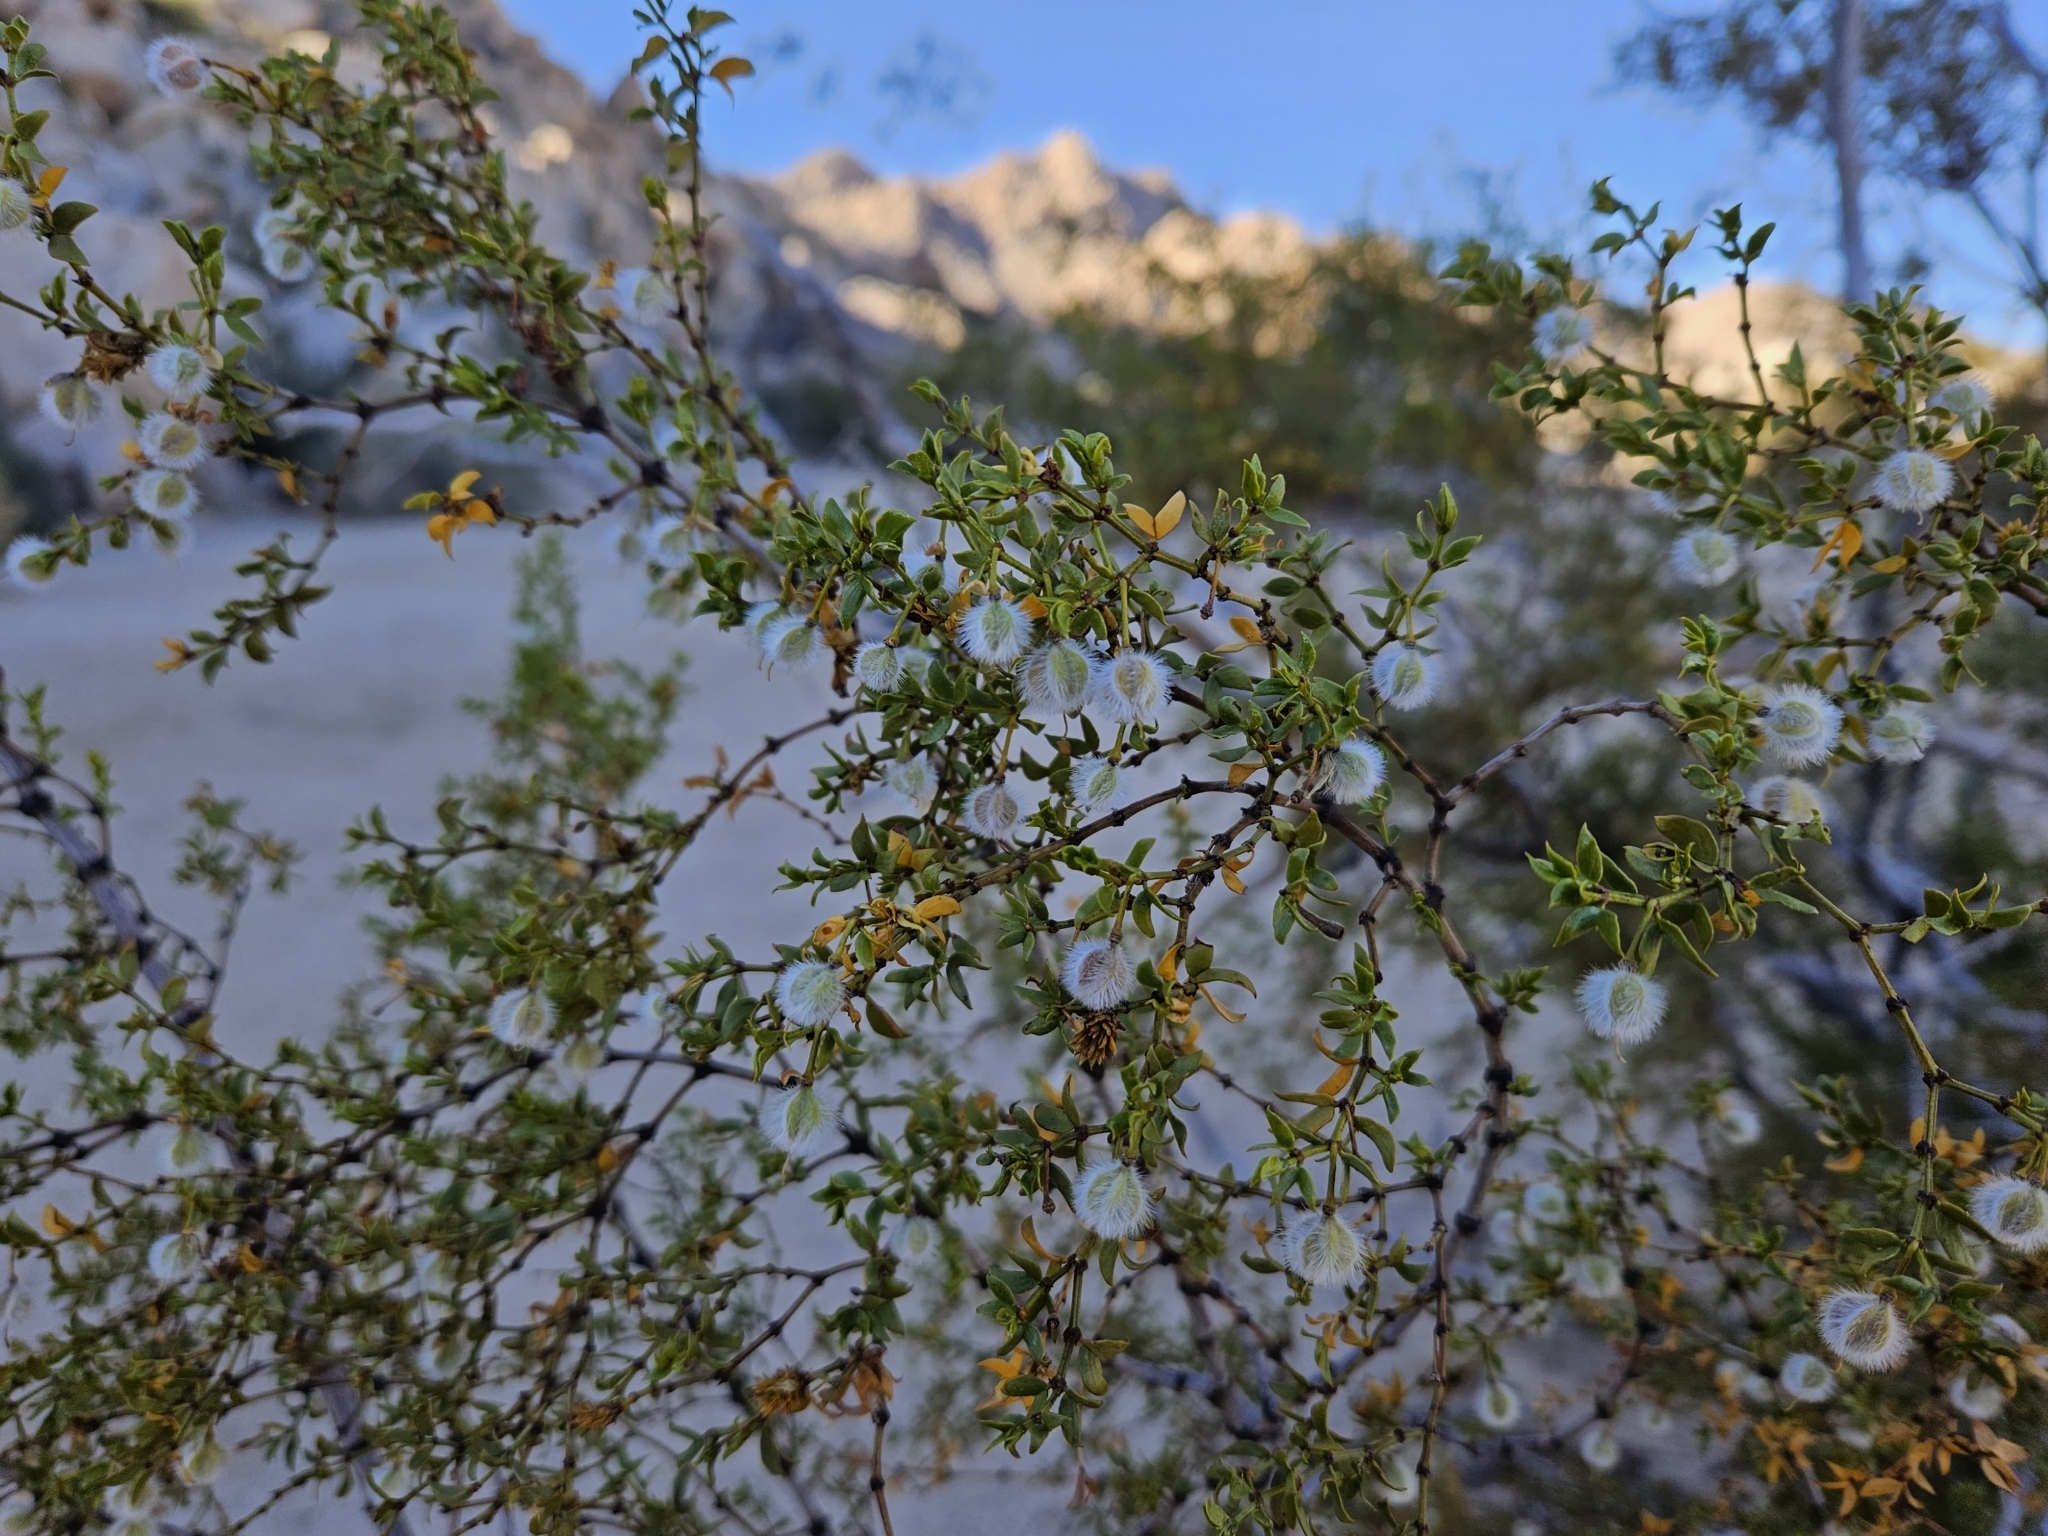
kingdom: Plantae
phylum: Tracheophyta
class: Magnoliopsida
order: Zygophyllales
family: Zygophyllaceae
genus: Larrea
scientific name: Larrea tridentata
